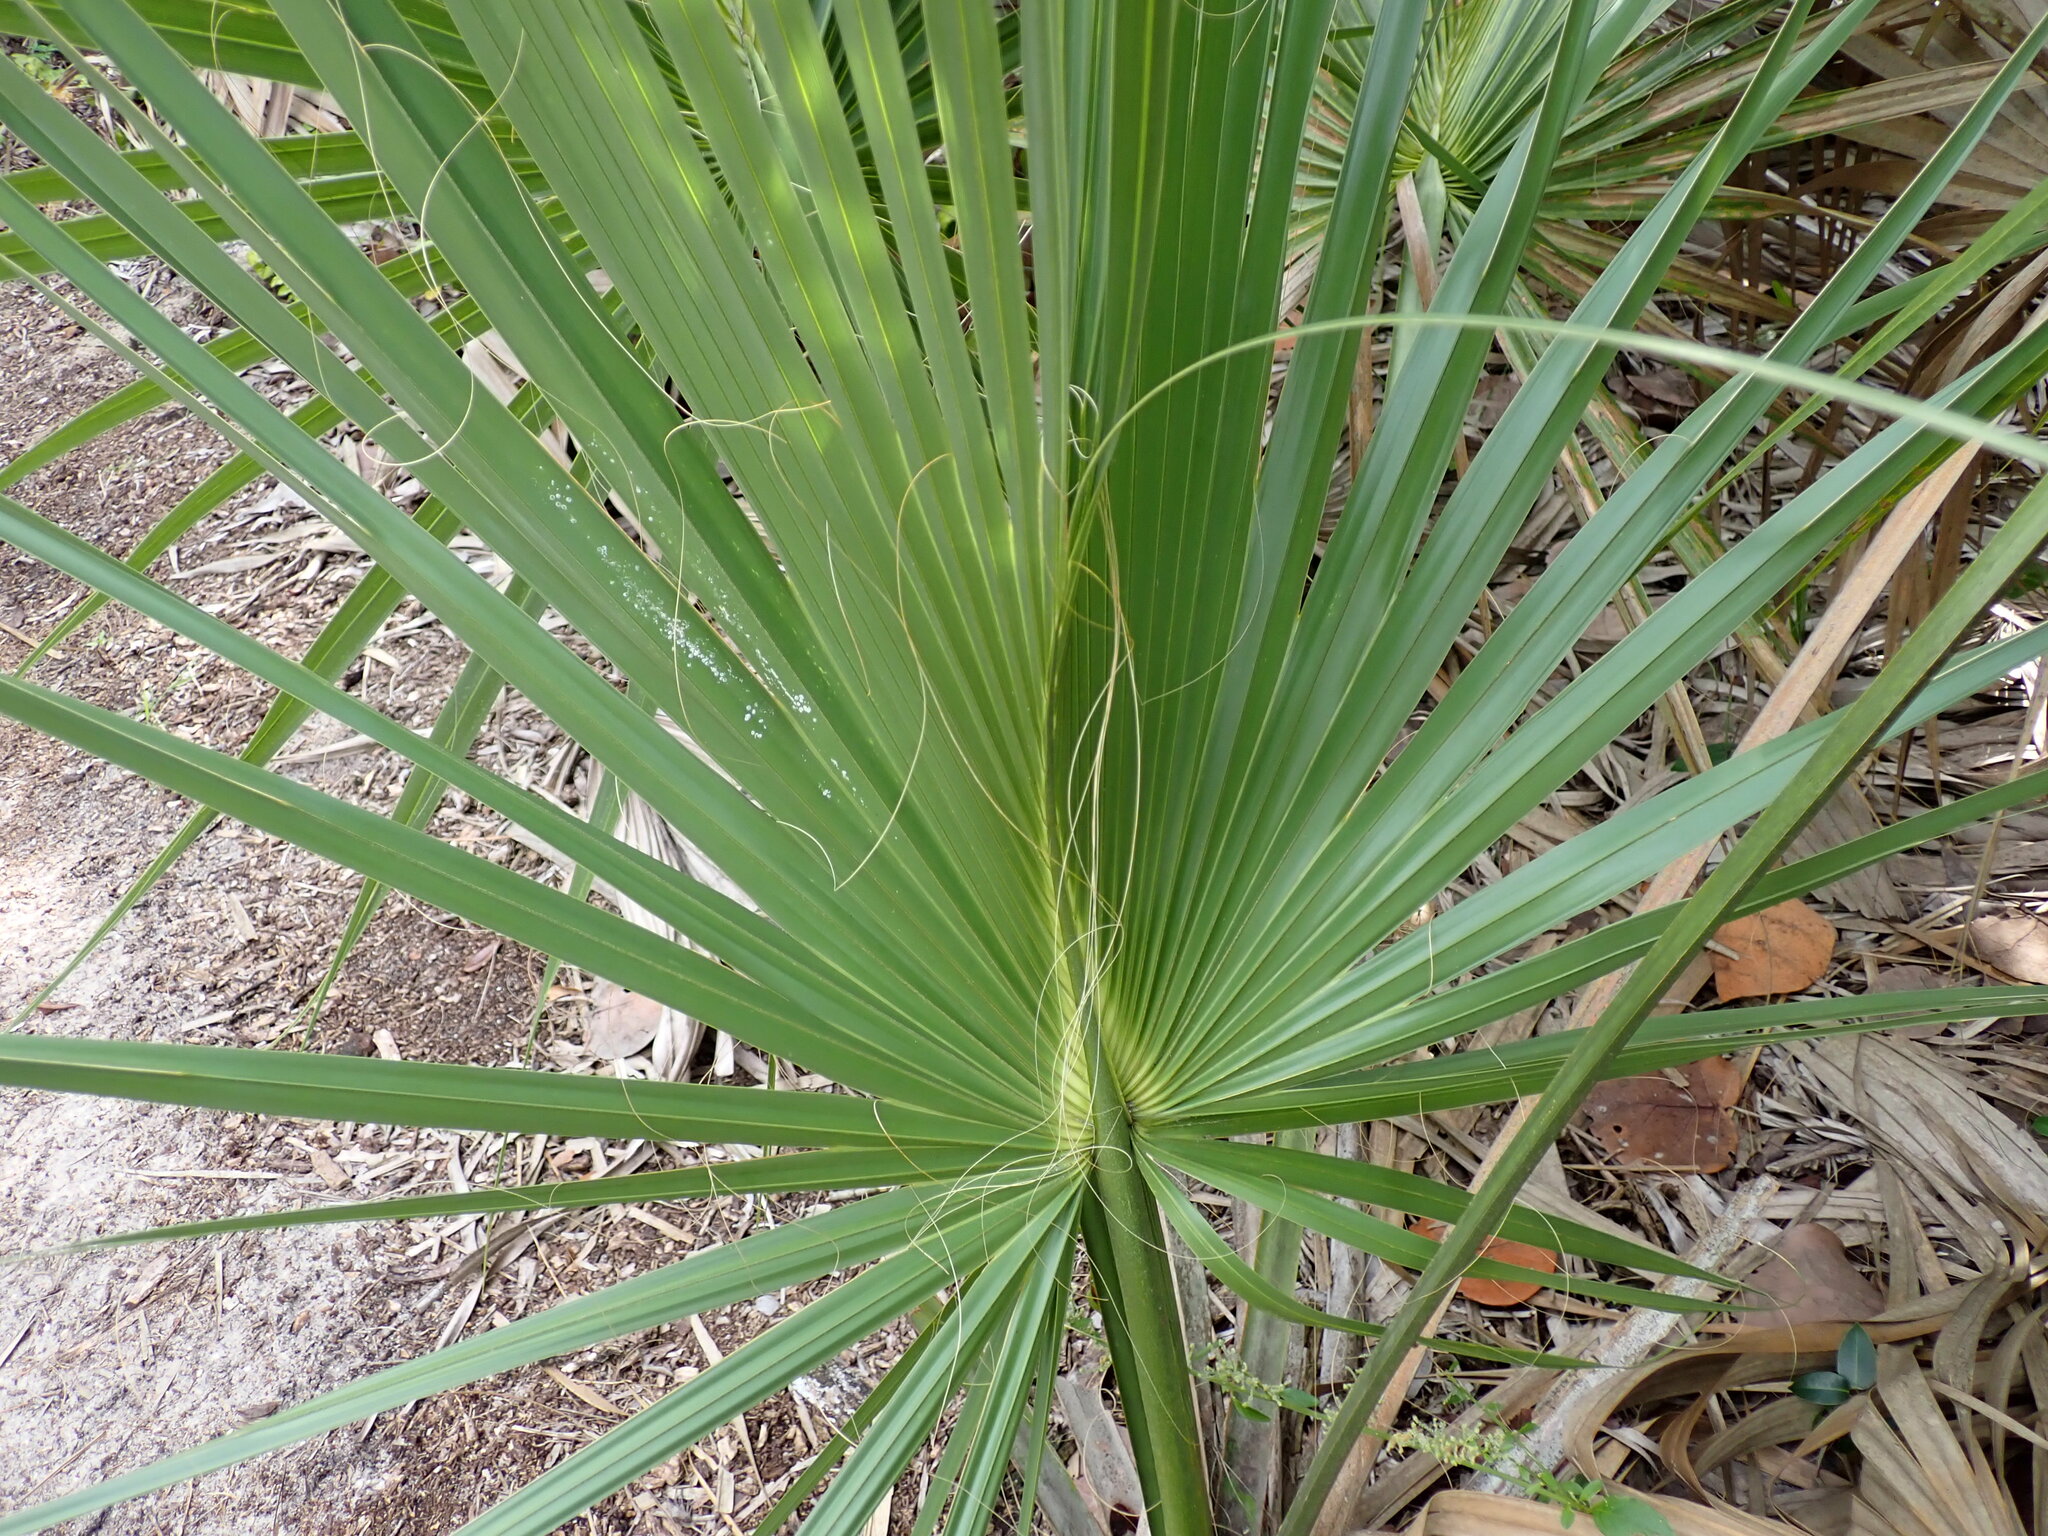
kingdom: Plantae
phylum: Tracheophyta
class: Liliopsida
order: Arecales
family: Arecaceae
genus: Sabal
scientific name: Sabal palmetto
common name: Blue palmetto
